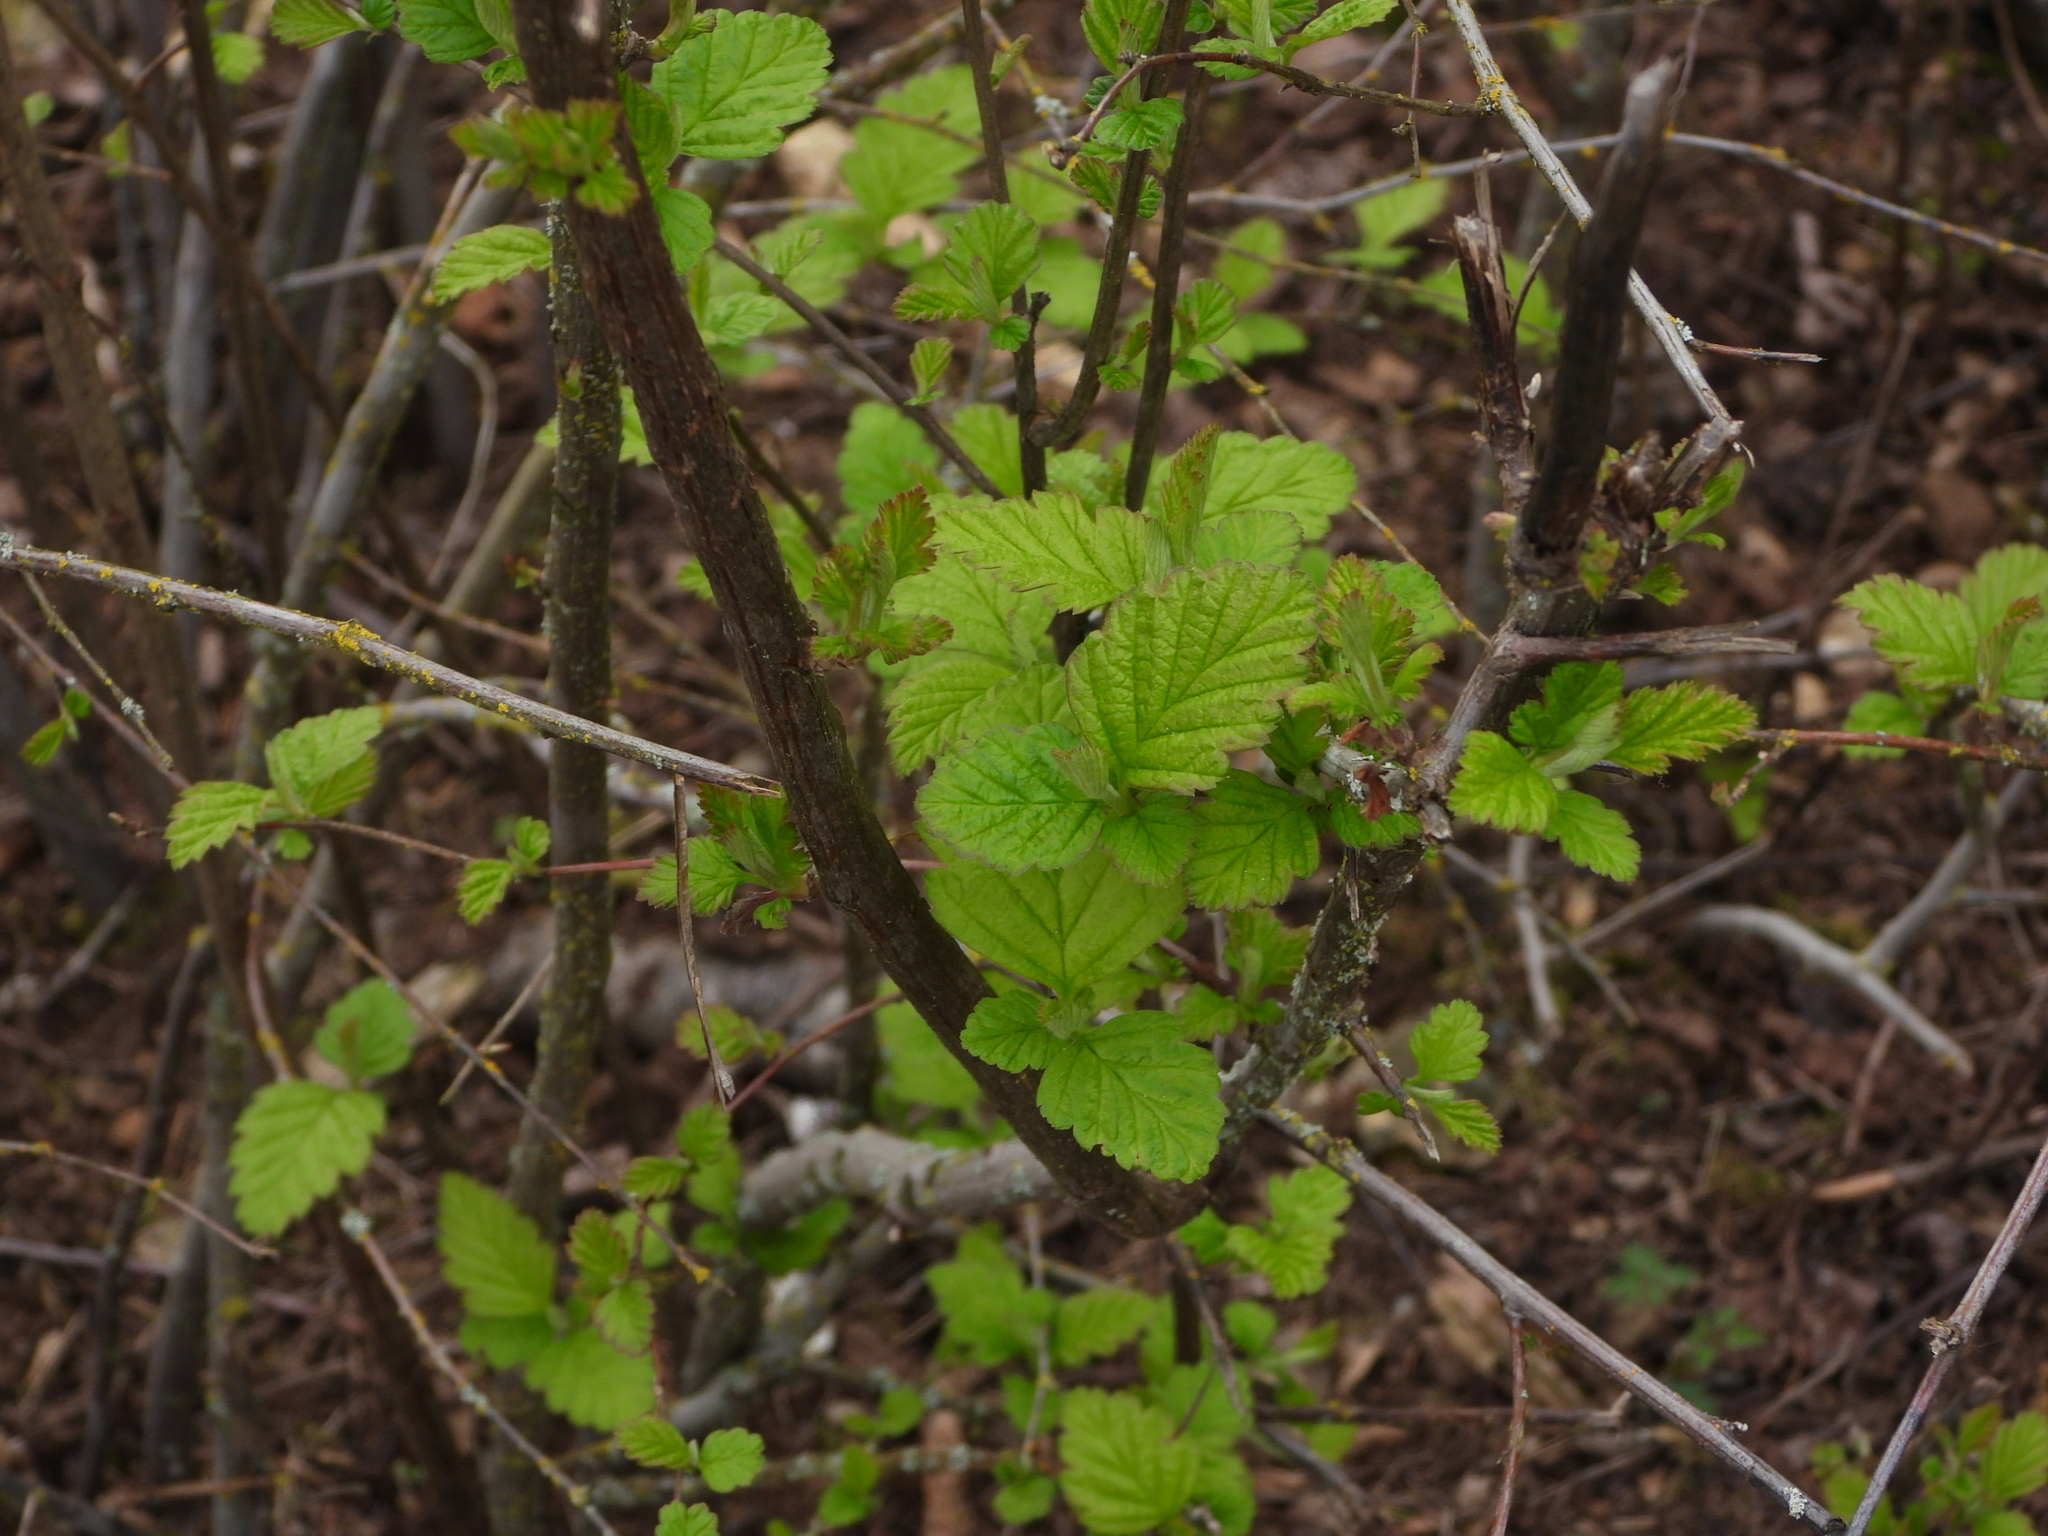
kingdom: Plantae
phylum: Tracheophyta
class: Magnoliopsida
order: Rosales
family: Rosaceae
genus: Holodiscus
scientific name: Holodiscus discolor
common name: Oceanspray
